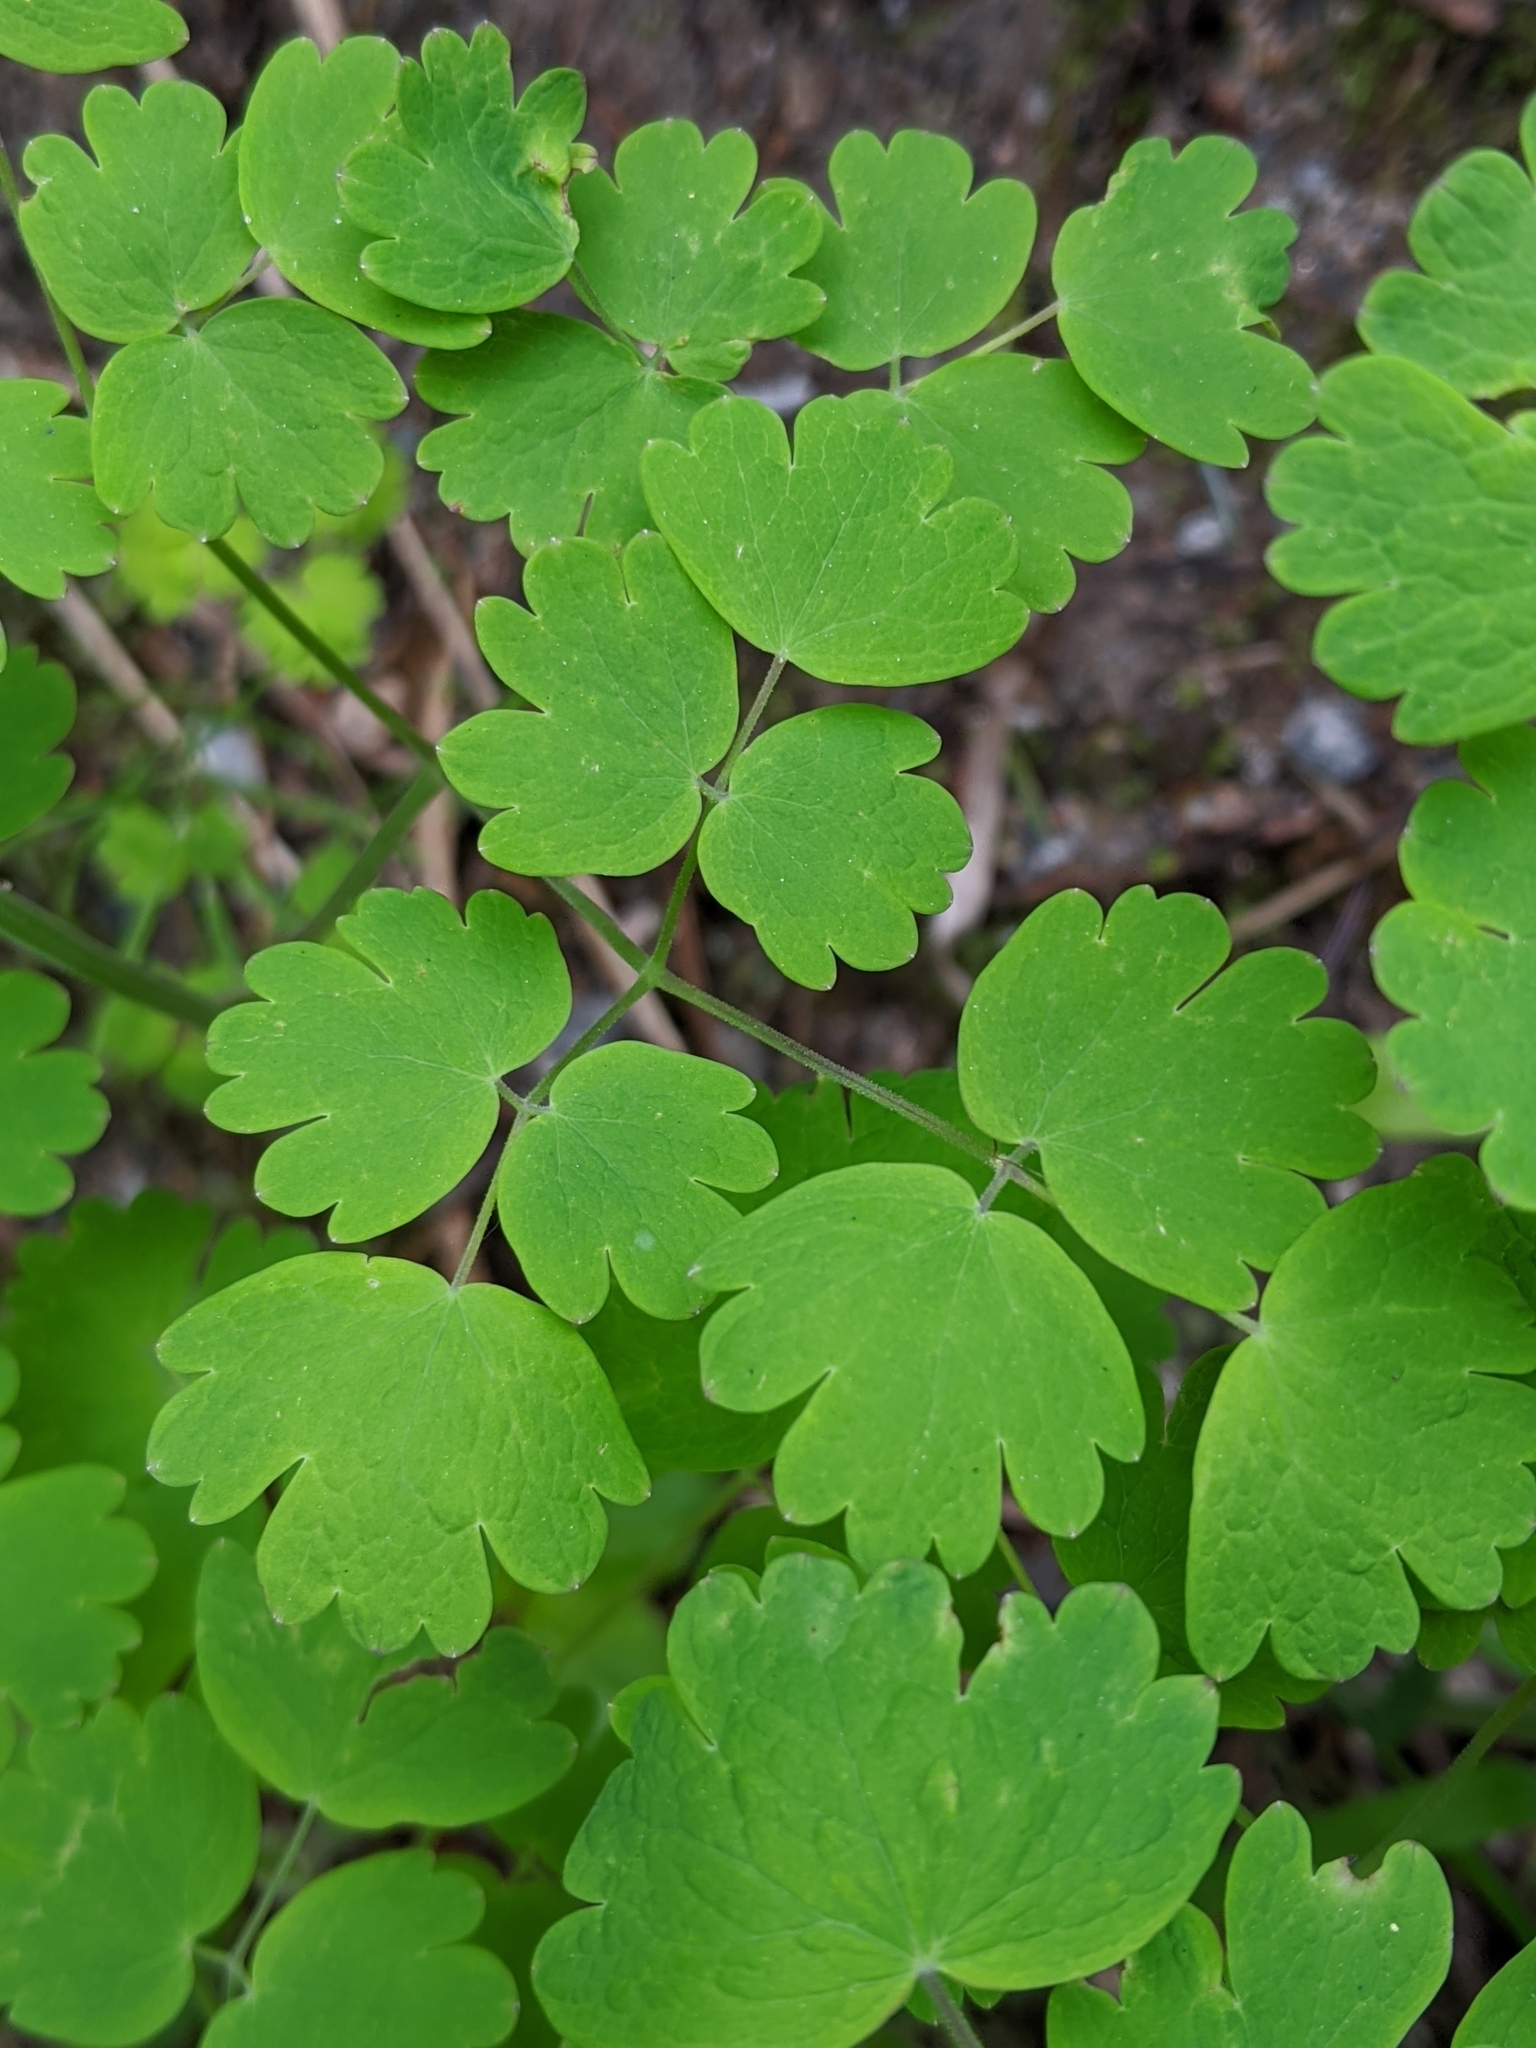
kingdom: Plantae
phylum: Tracheophyta
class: Magnoliopsida
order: Ranunculales
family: Ranunculaceae
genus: Thalictrum
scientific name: Thalictrum occidentale
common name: Western meadow-rue
